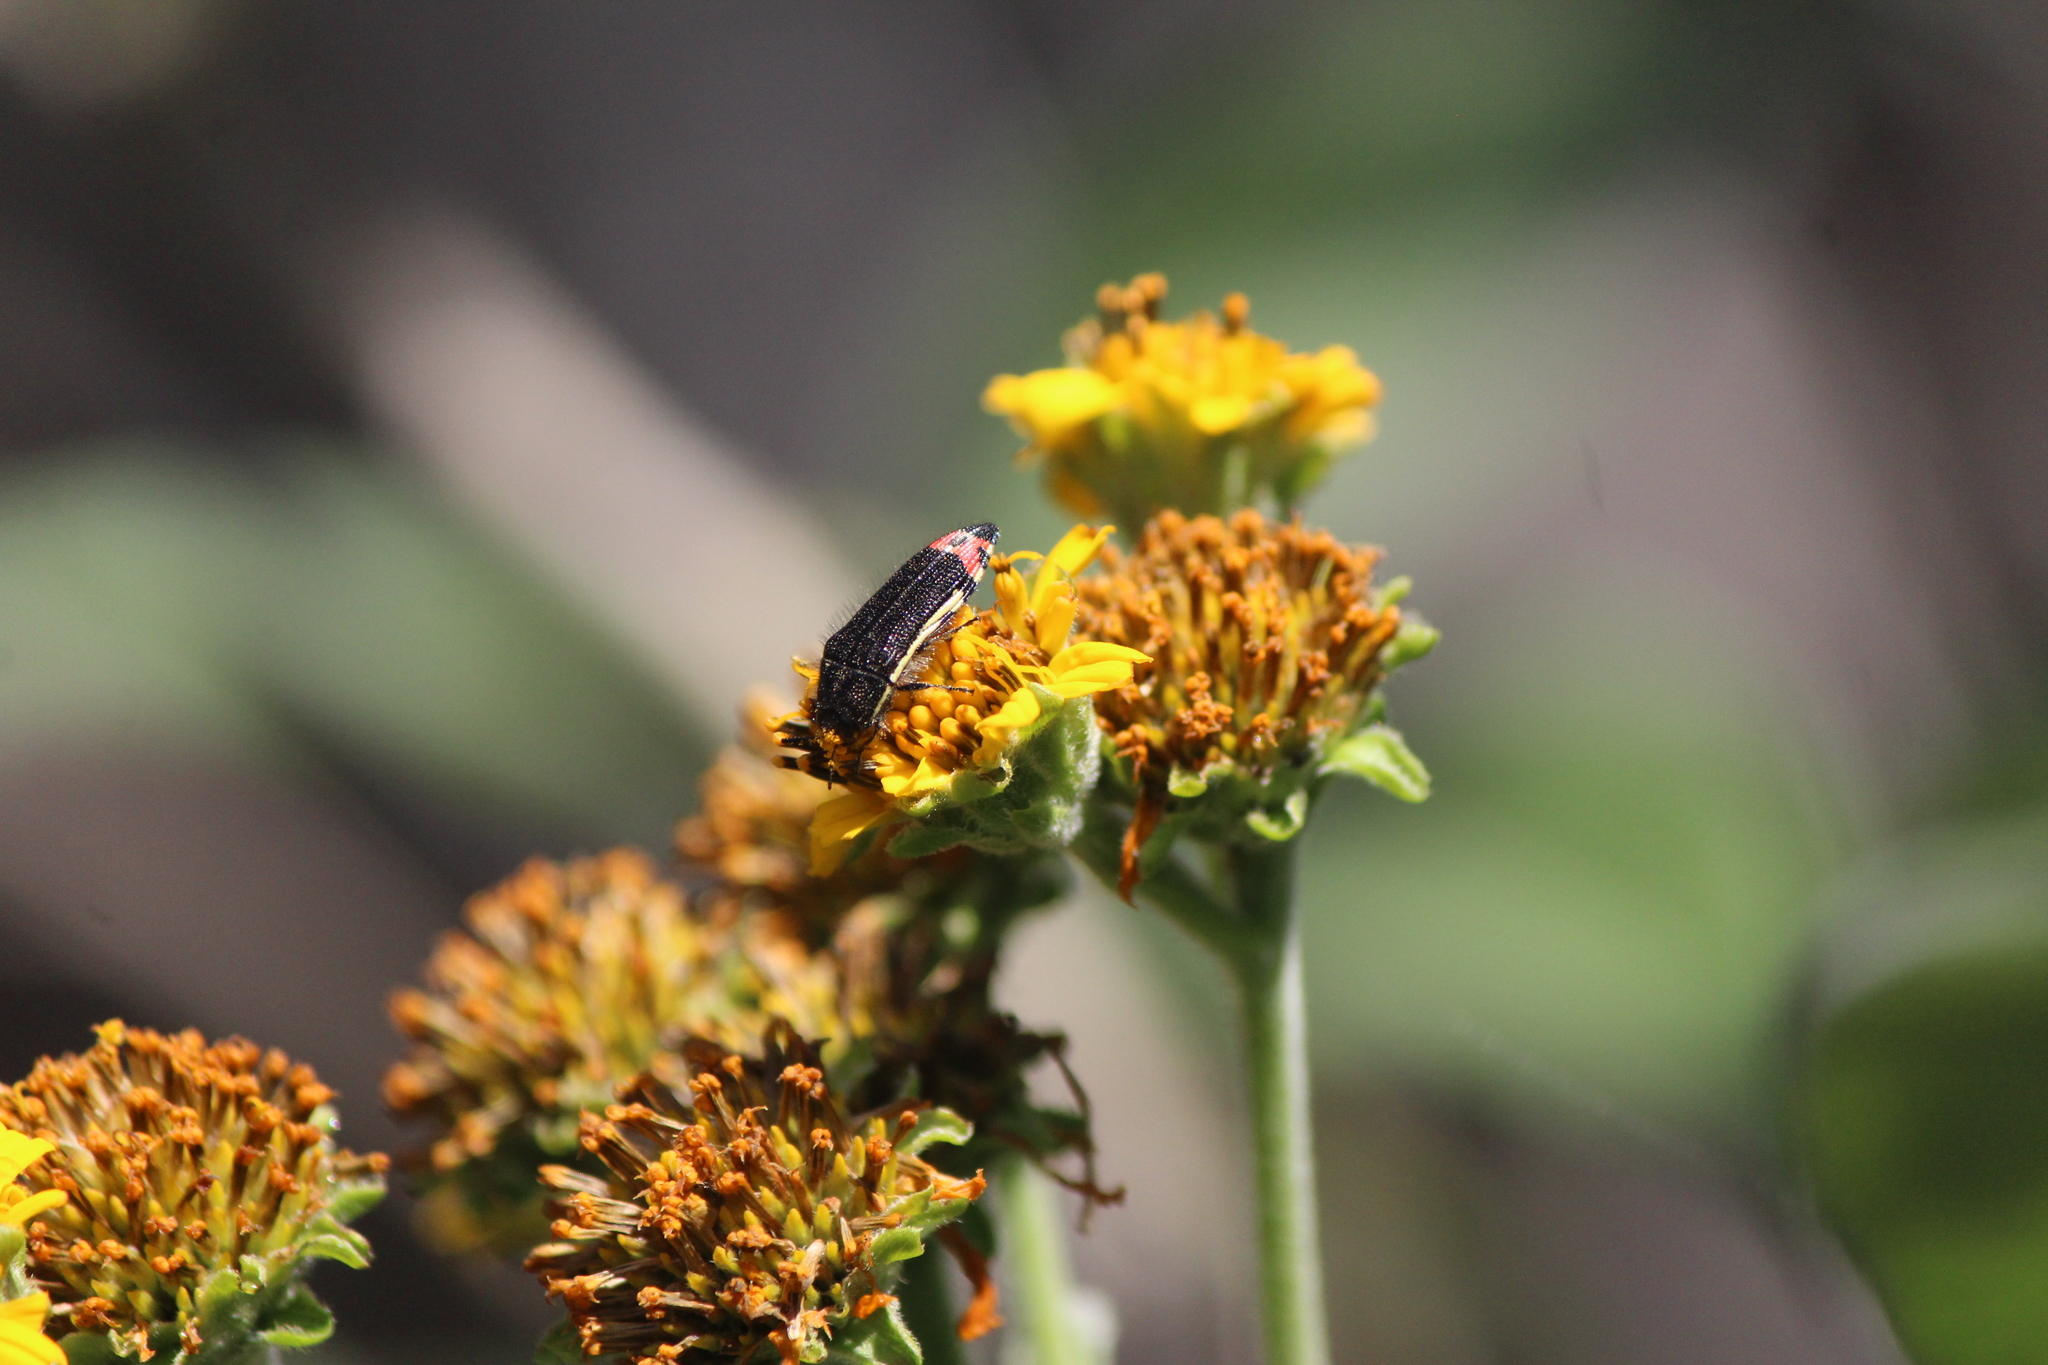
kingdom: Animalia
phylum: Arthropoda
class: Insecta
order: Coleoptera
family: Buprestidae
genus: Acmaeodera
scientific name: Acmaeodera flavomarginata
